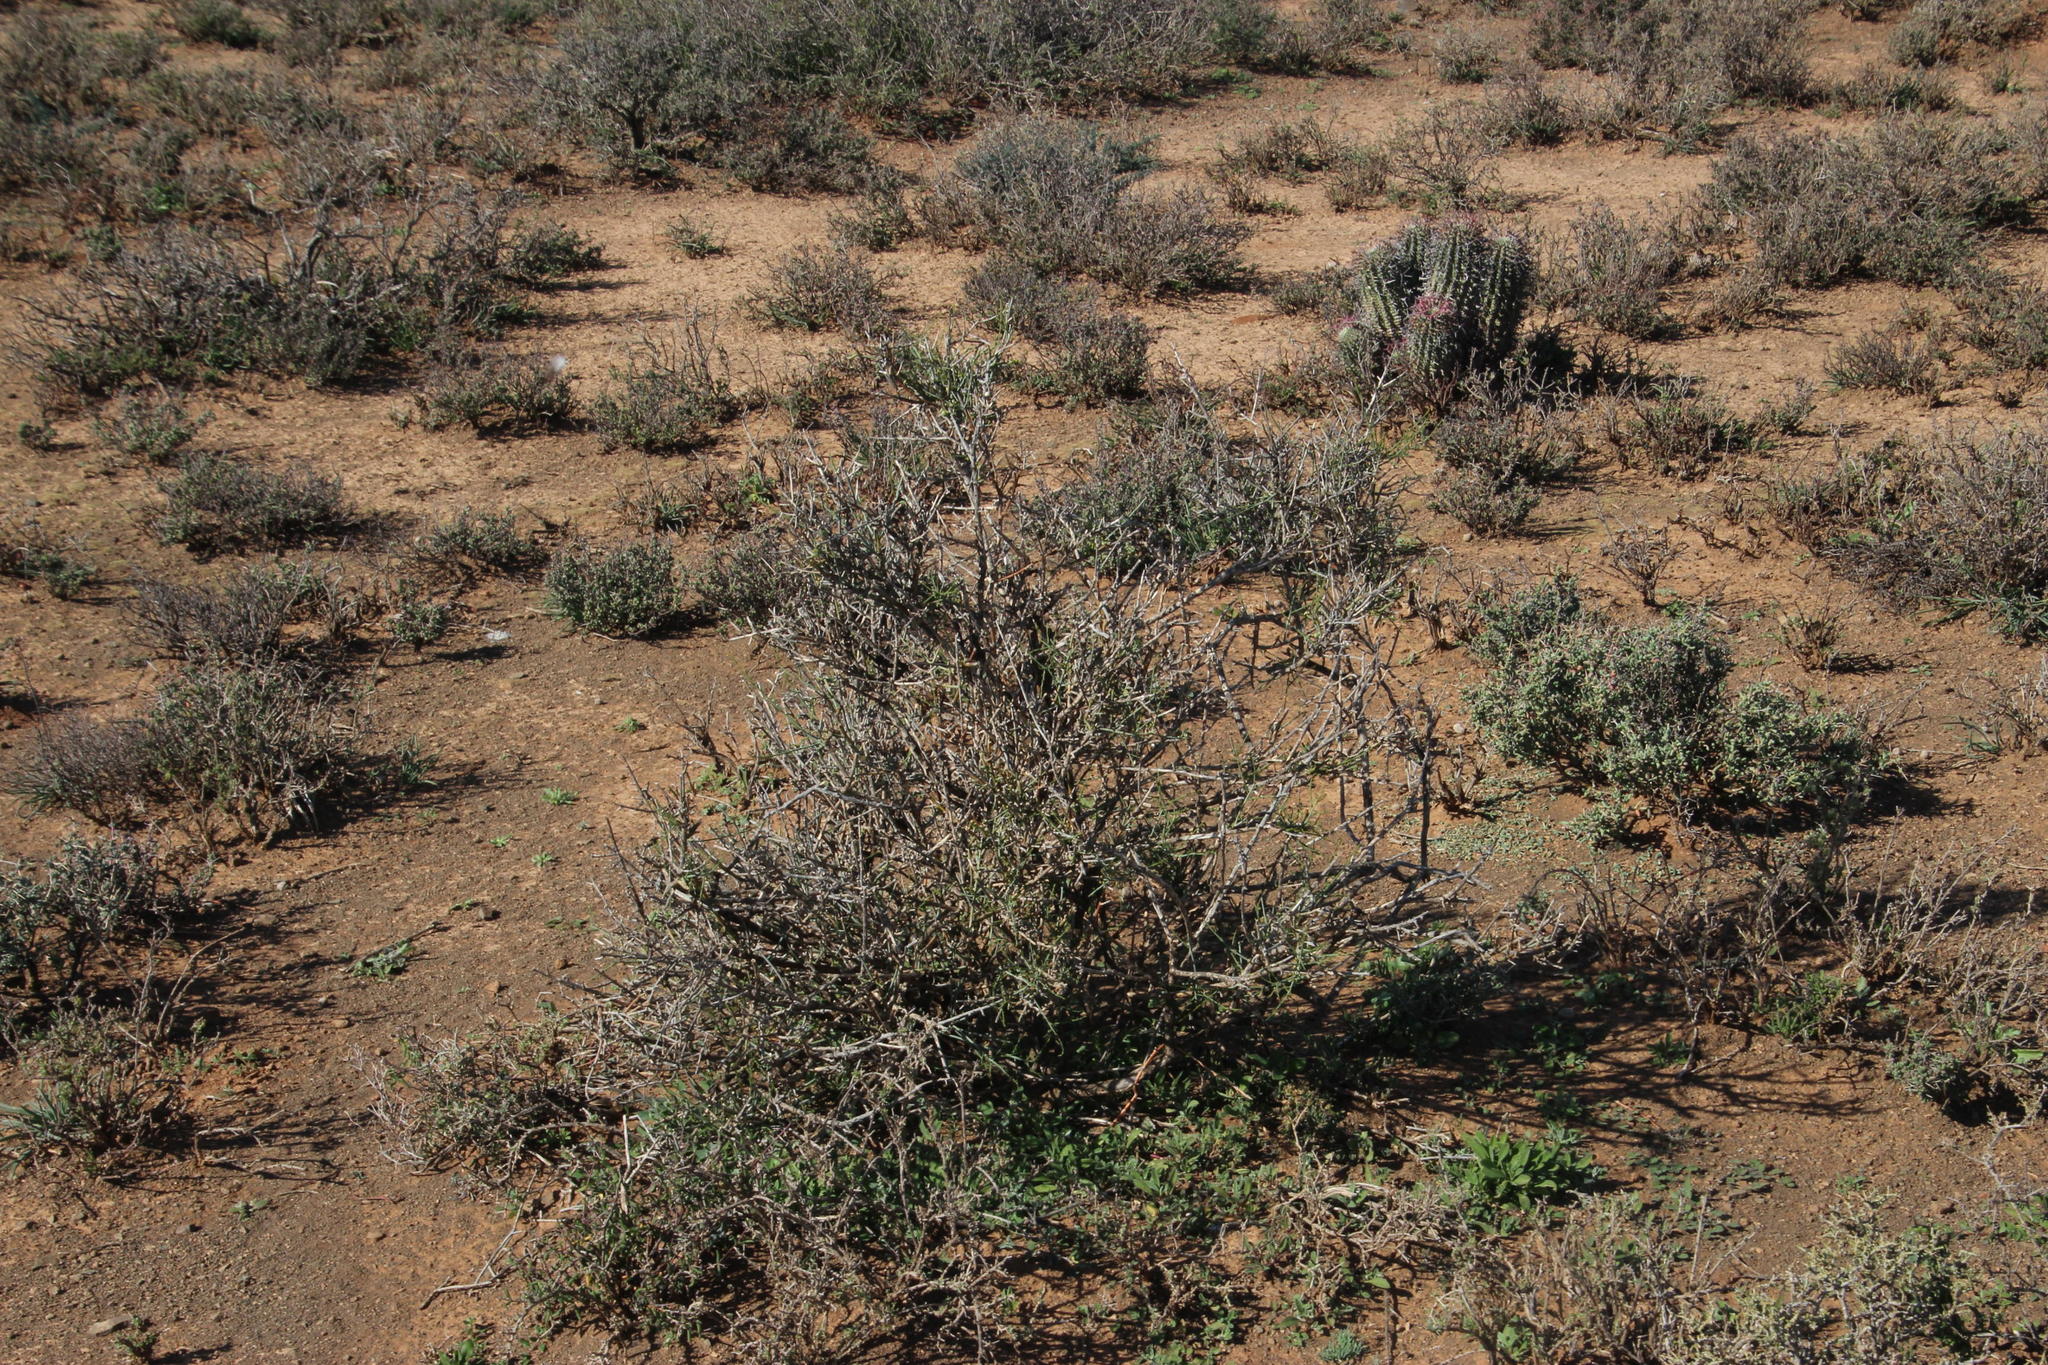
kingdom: Plantae
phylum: Tracheophyta
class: Magnoliopsida
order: Santalales
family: Thesiaceae
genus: Lacomucinaea
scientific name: Lacomucinaea lineata
